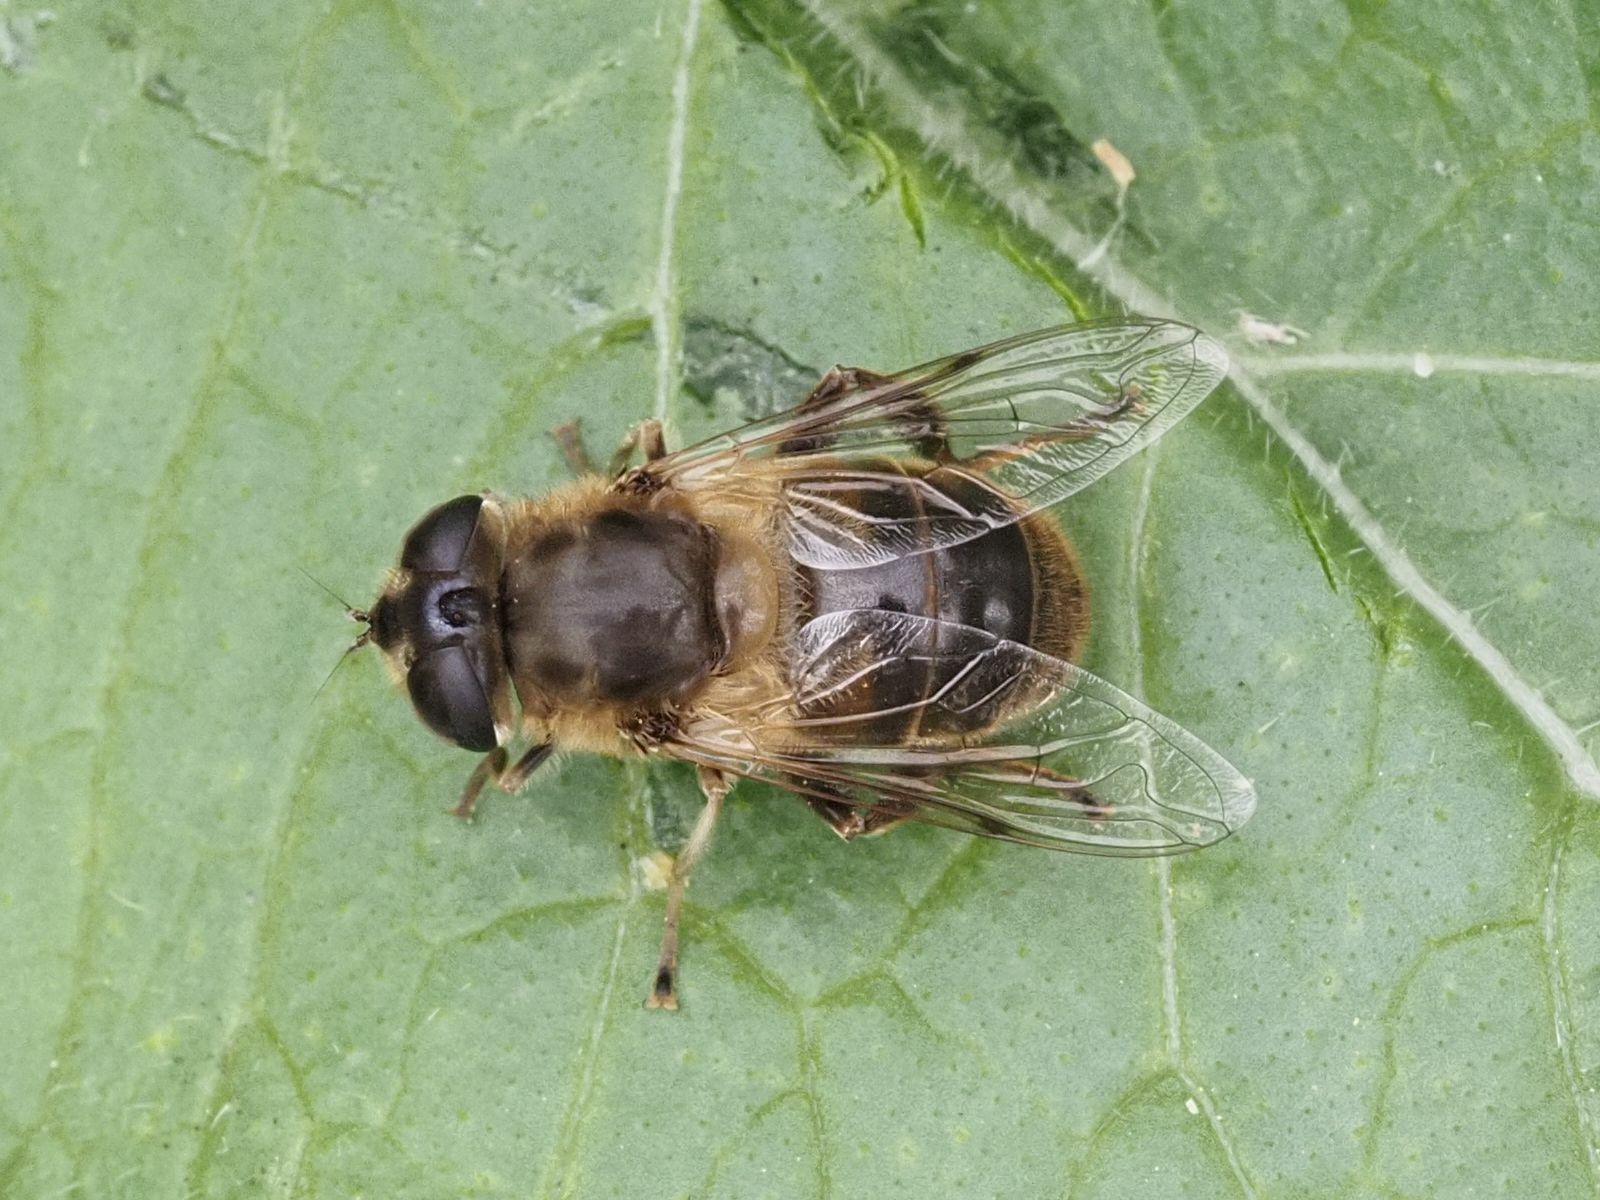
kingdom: Animalia
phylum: Arthropoda
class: Insecta
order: Diptera
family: Syrphidae
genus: Eristalis
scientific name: Eristalis tenax
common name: Drone fly
